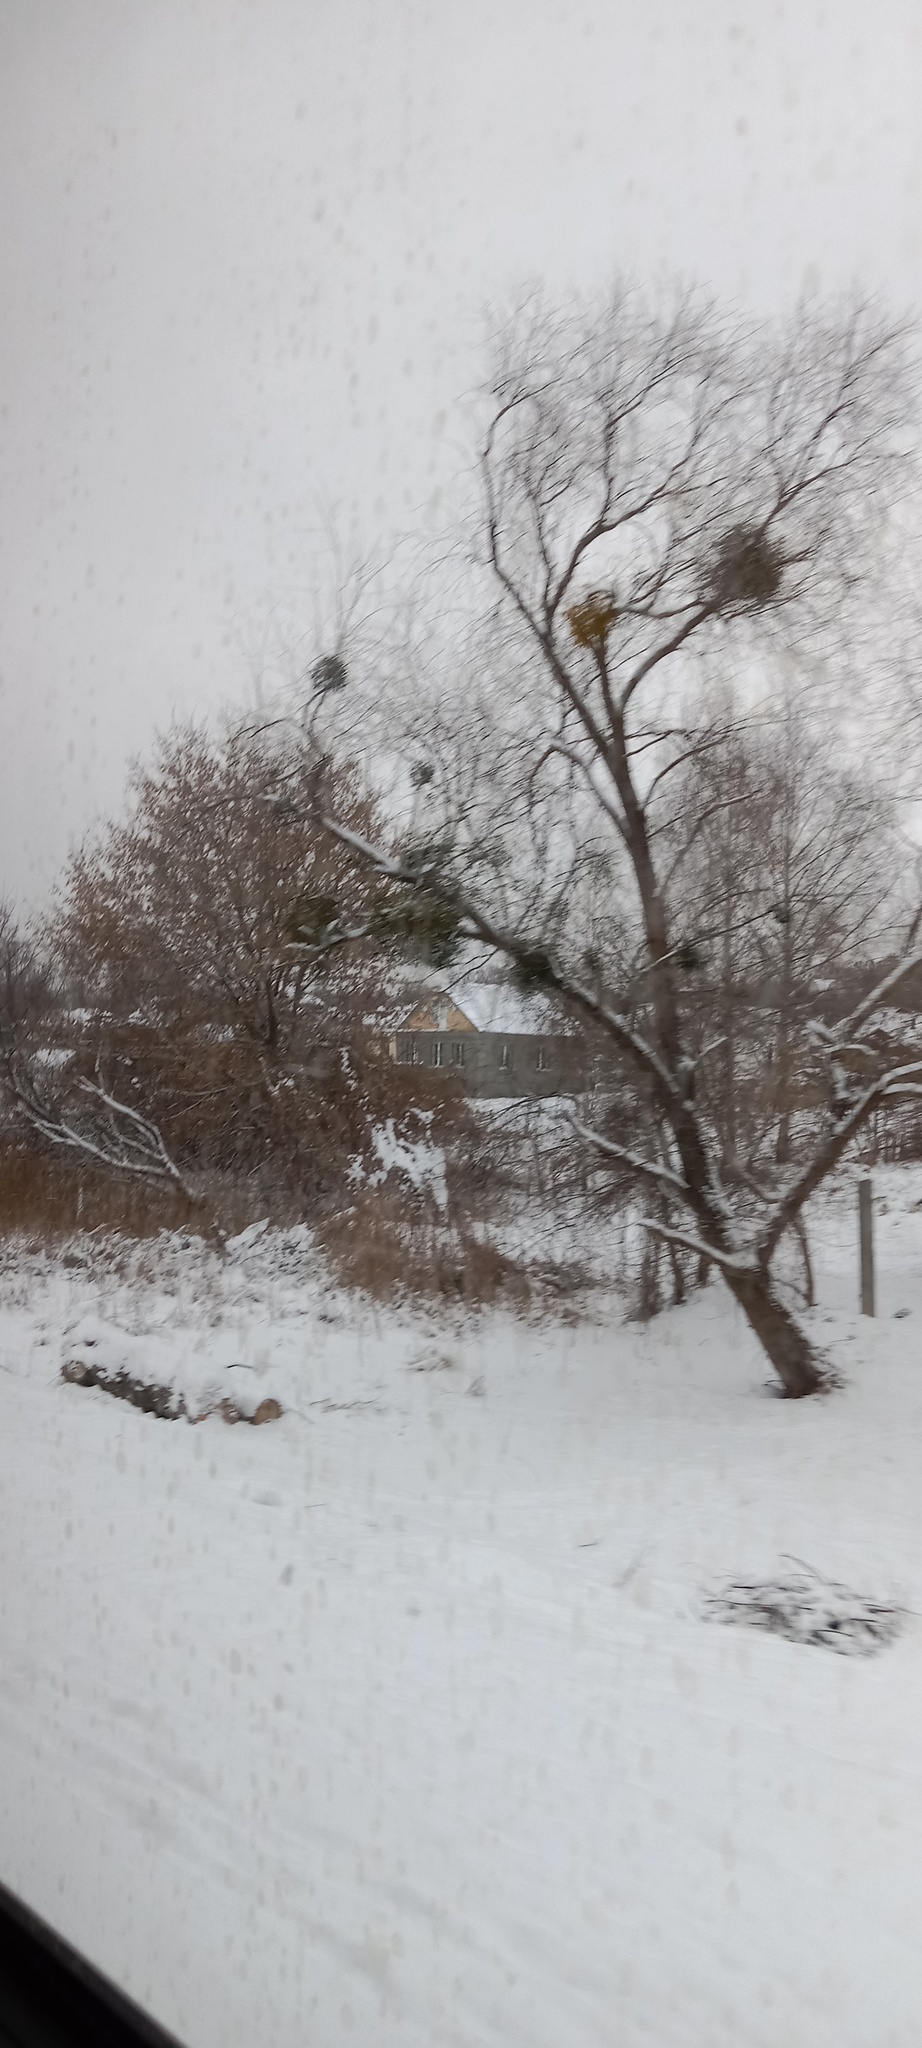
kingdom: Plantae
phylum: Tracheophyta
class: Magnoliopsida
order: Santalales
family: Viscaceae
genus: Viscum
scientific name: Viscum album
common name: Mistletoe
